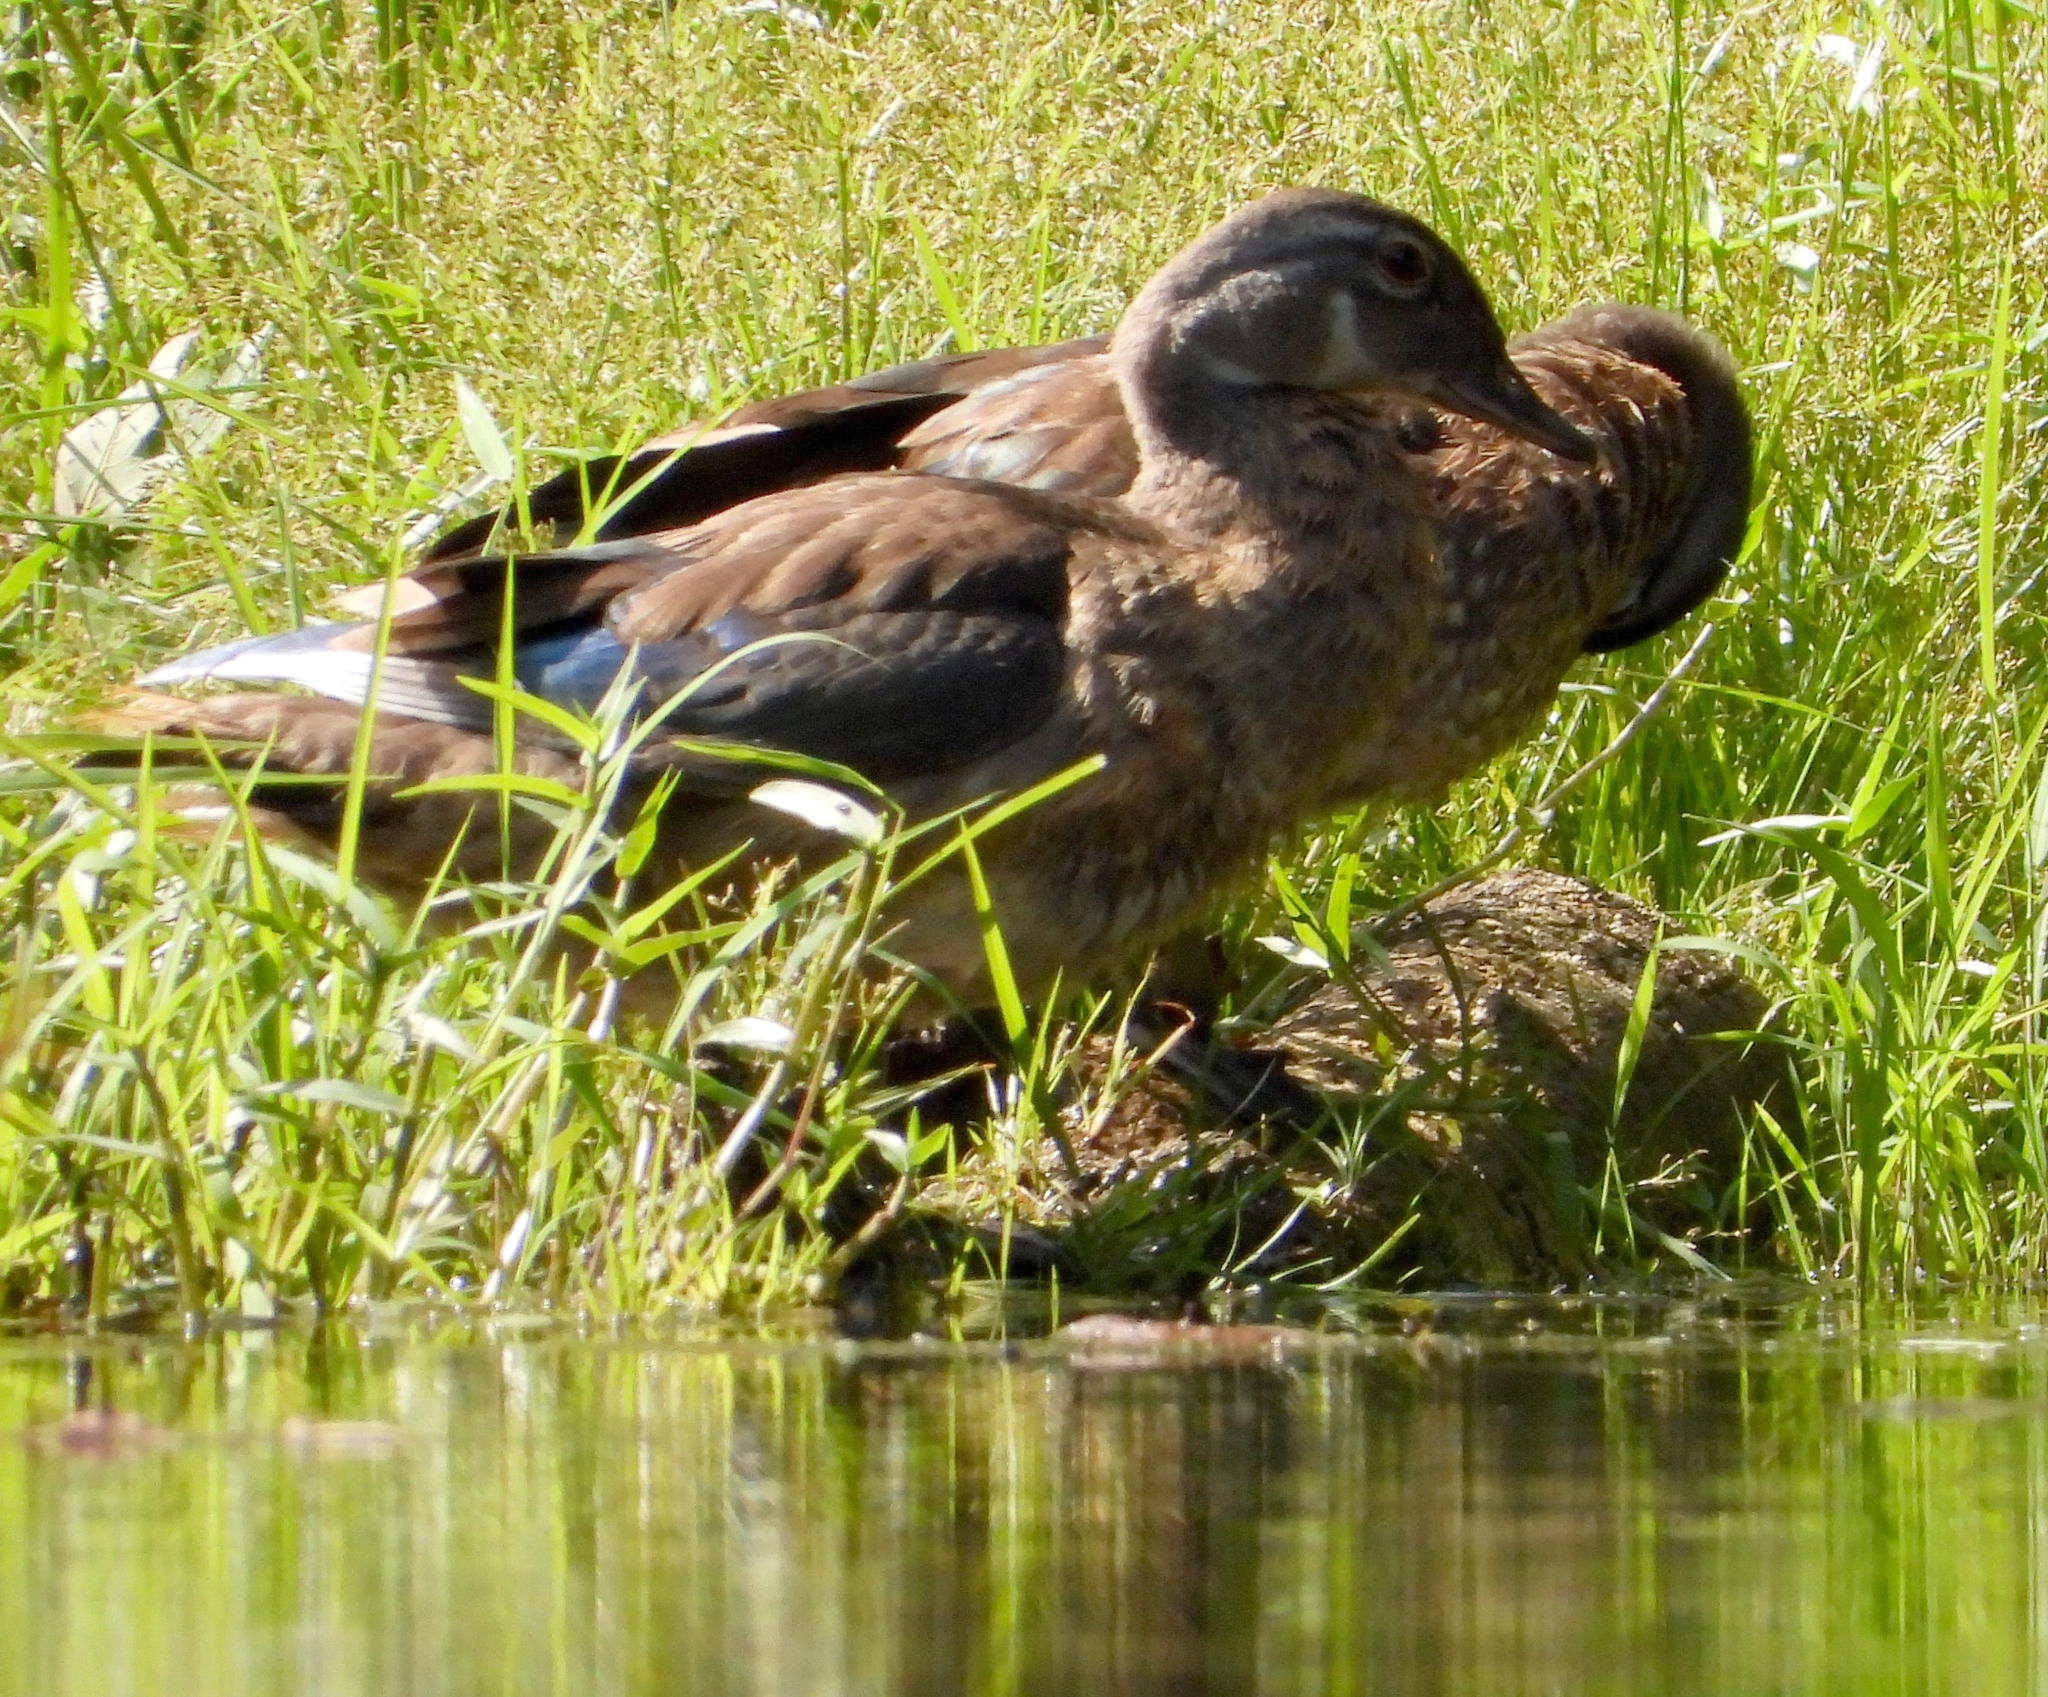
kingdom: Animalia
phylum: Chordata
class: Aves
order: Anseriformes
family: Anatidae
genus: Aix
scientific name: Aix sponsa
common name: Wood duck
